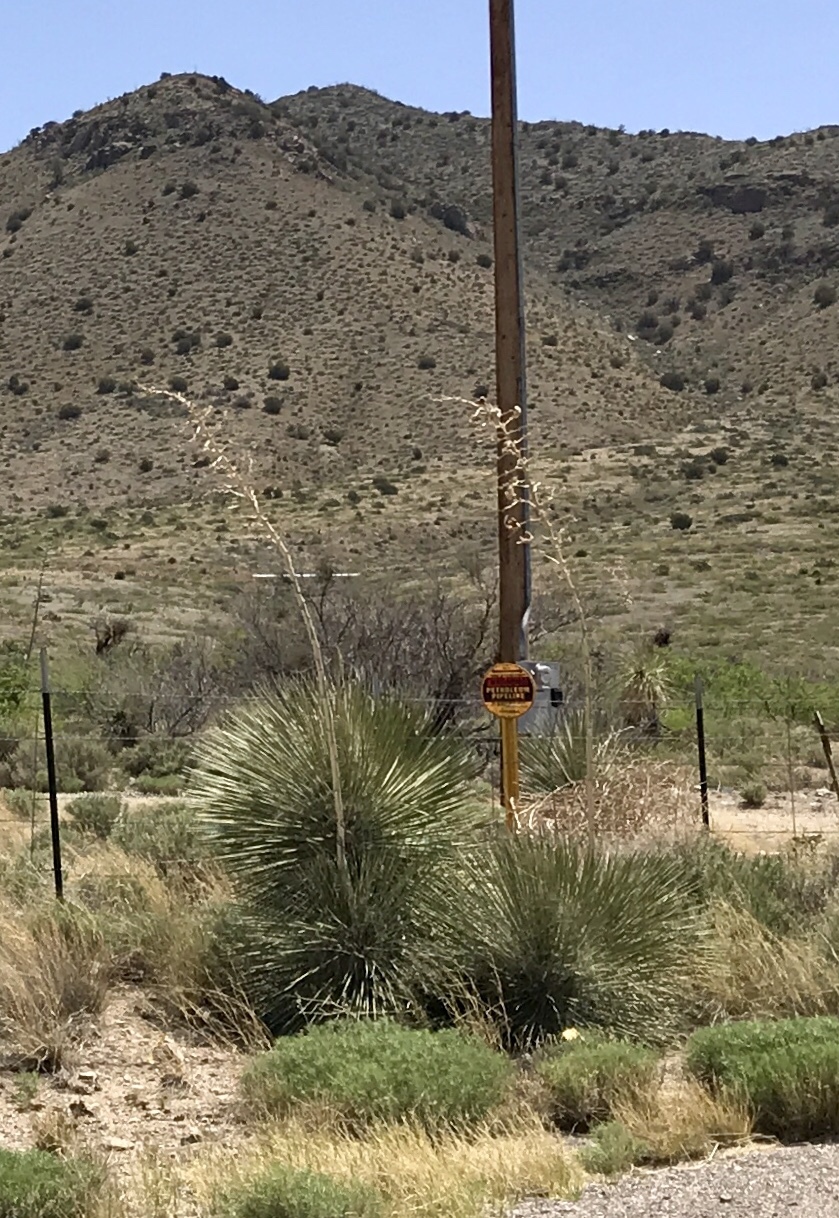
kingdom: Plantae
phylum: Tracheophyta
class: Liliopsida
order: Asparagales
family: Asparagaceae
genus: Yucca
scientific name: Yucca elata
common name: Palmella
